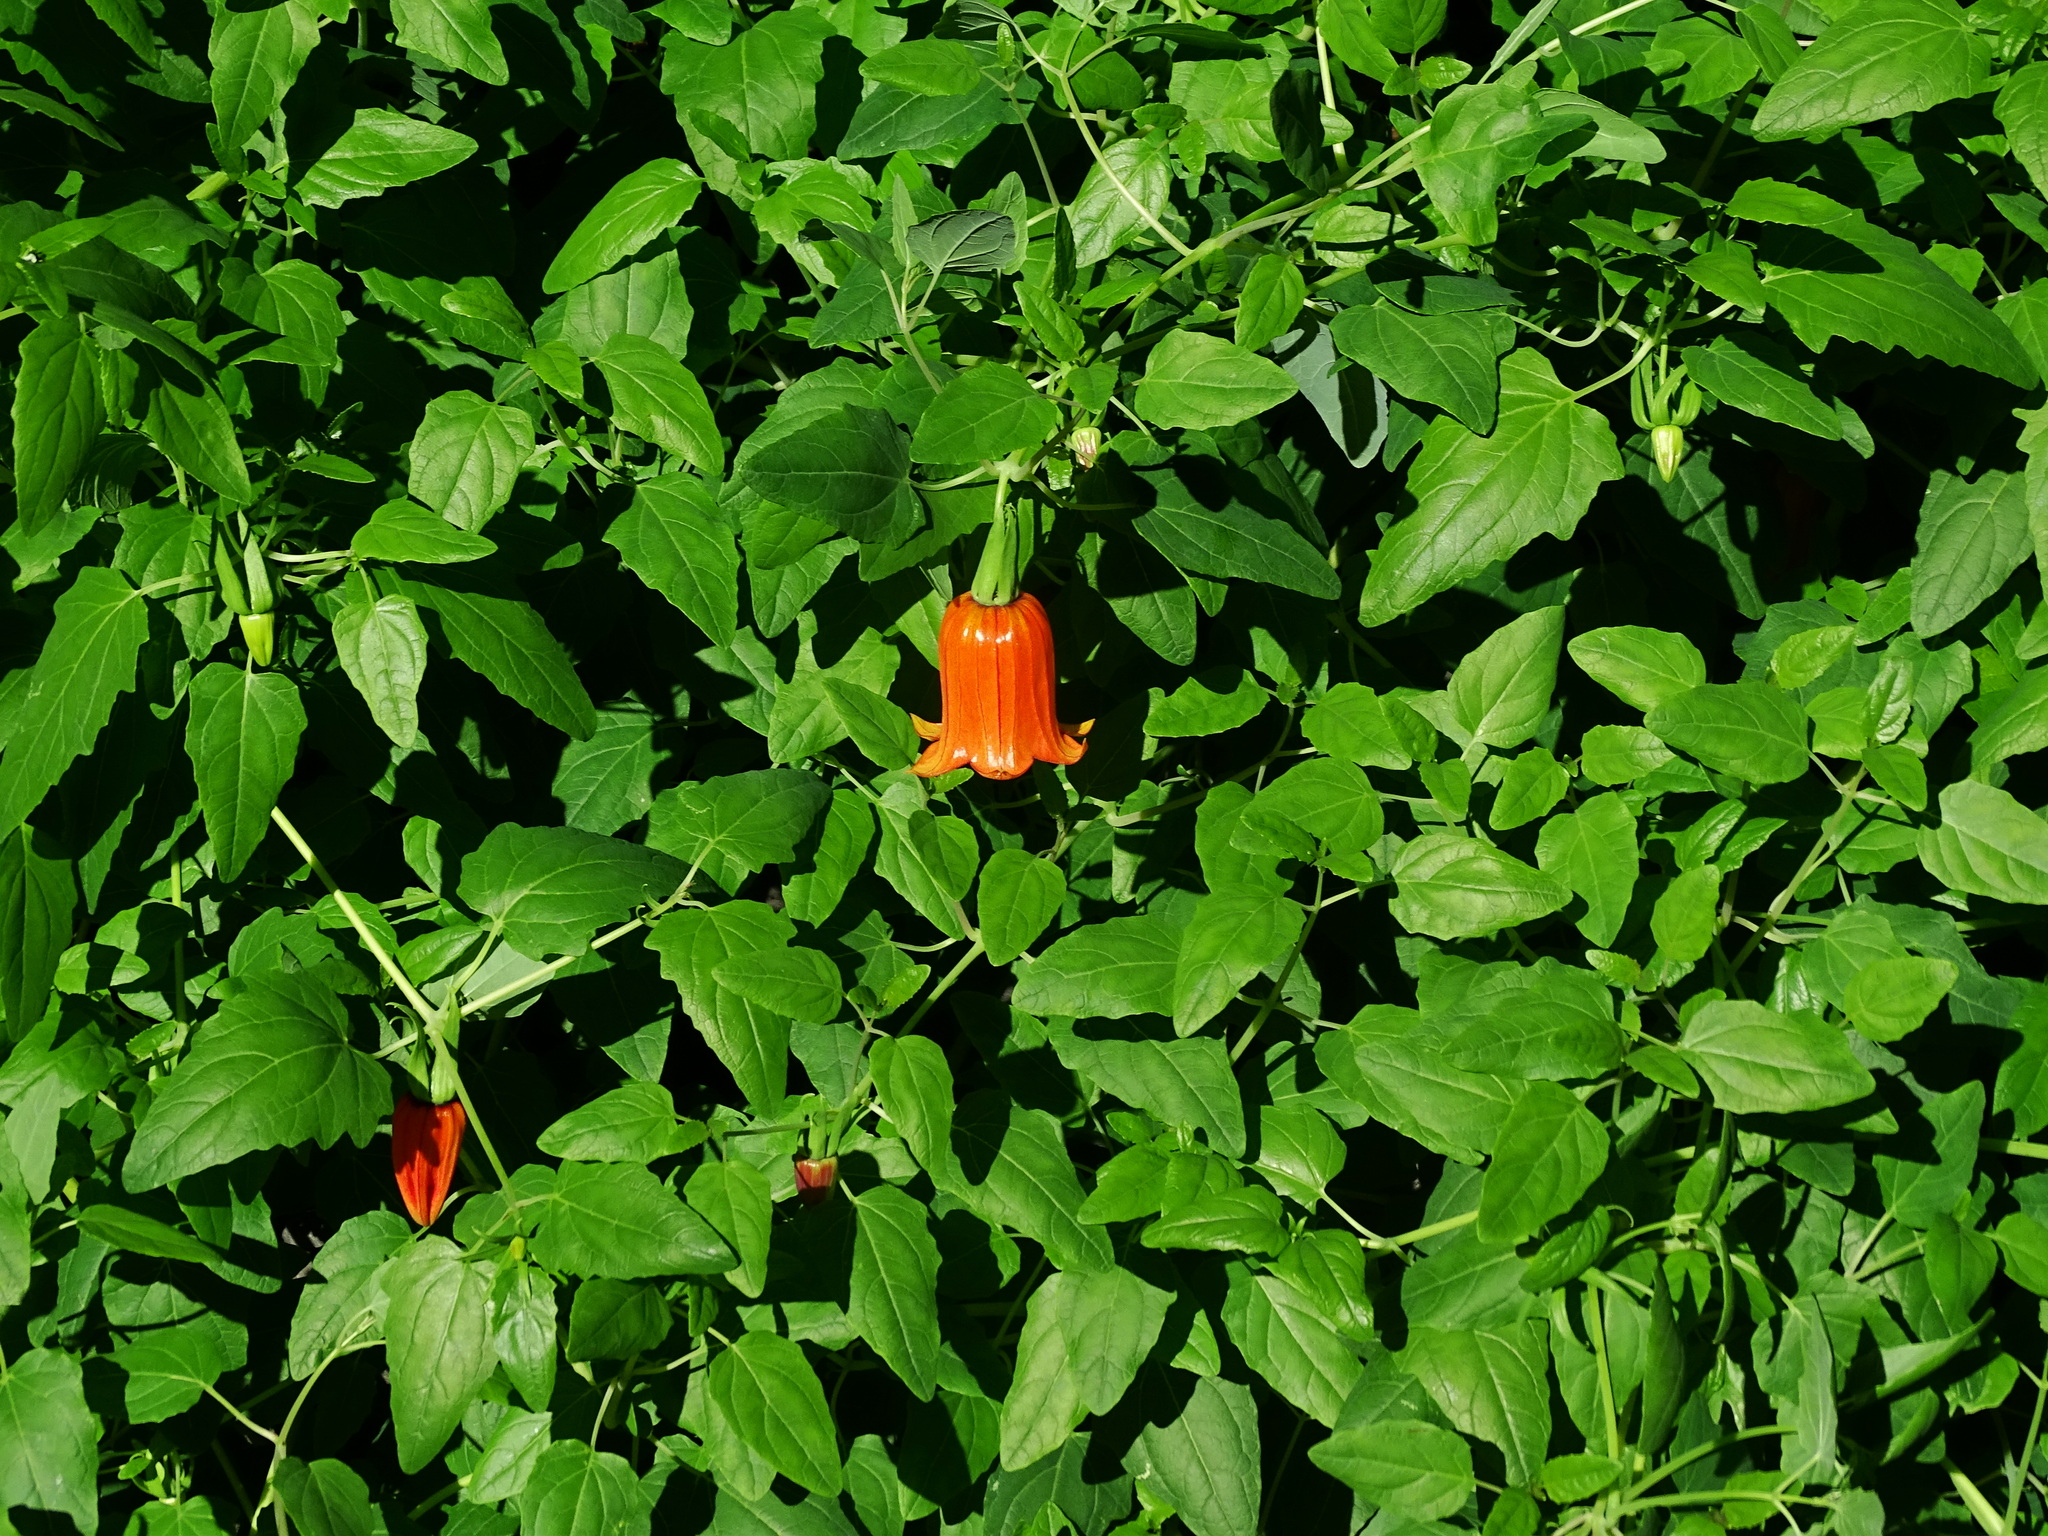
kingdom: Plantae
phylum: Tracheophyta
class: Magnoliopsida
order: Asterales
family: Campanulaceae
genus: Canarina
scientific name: Canarina canariensis
